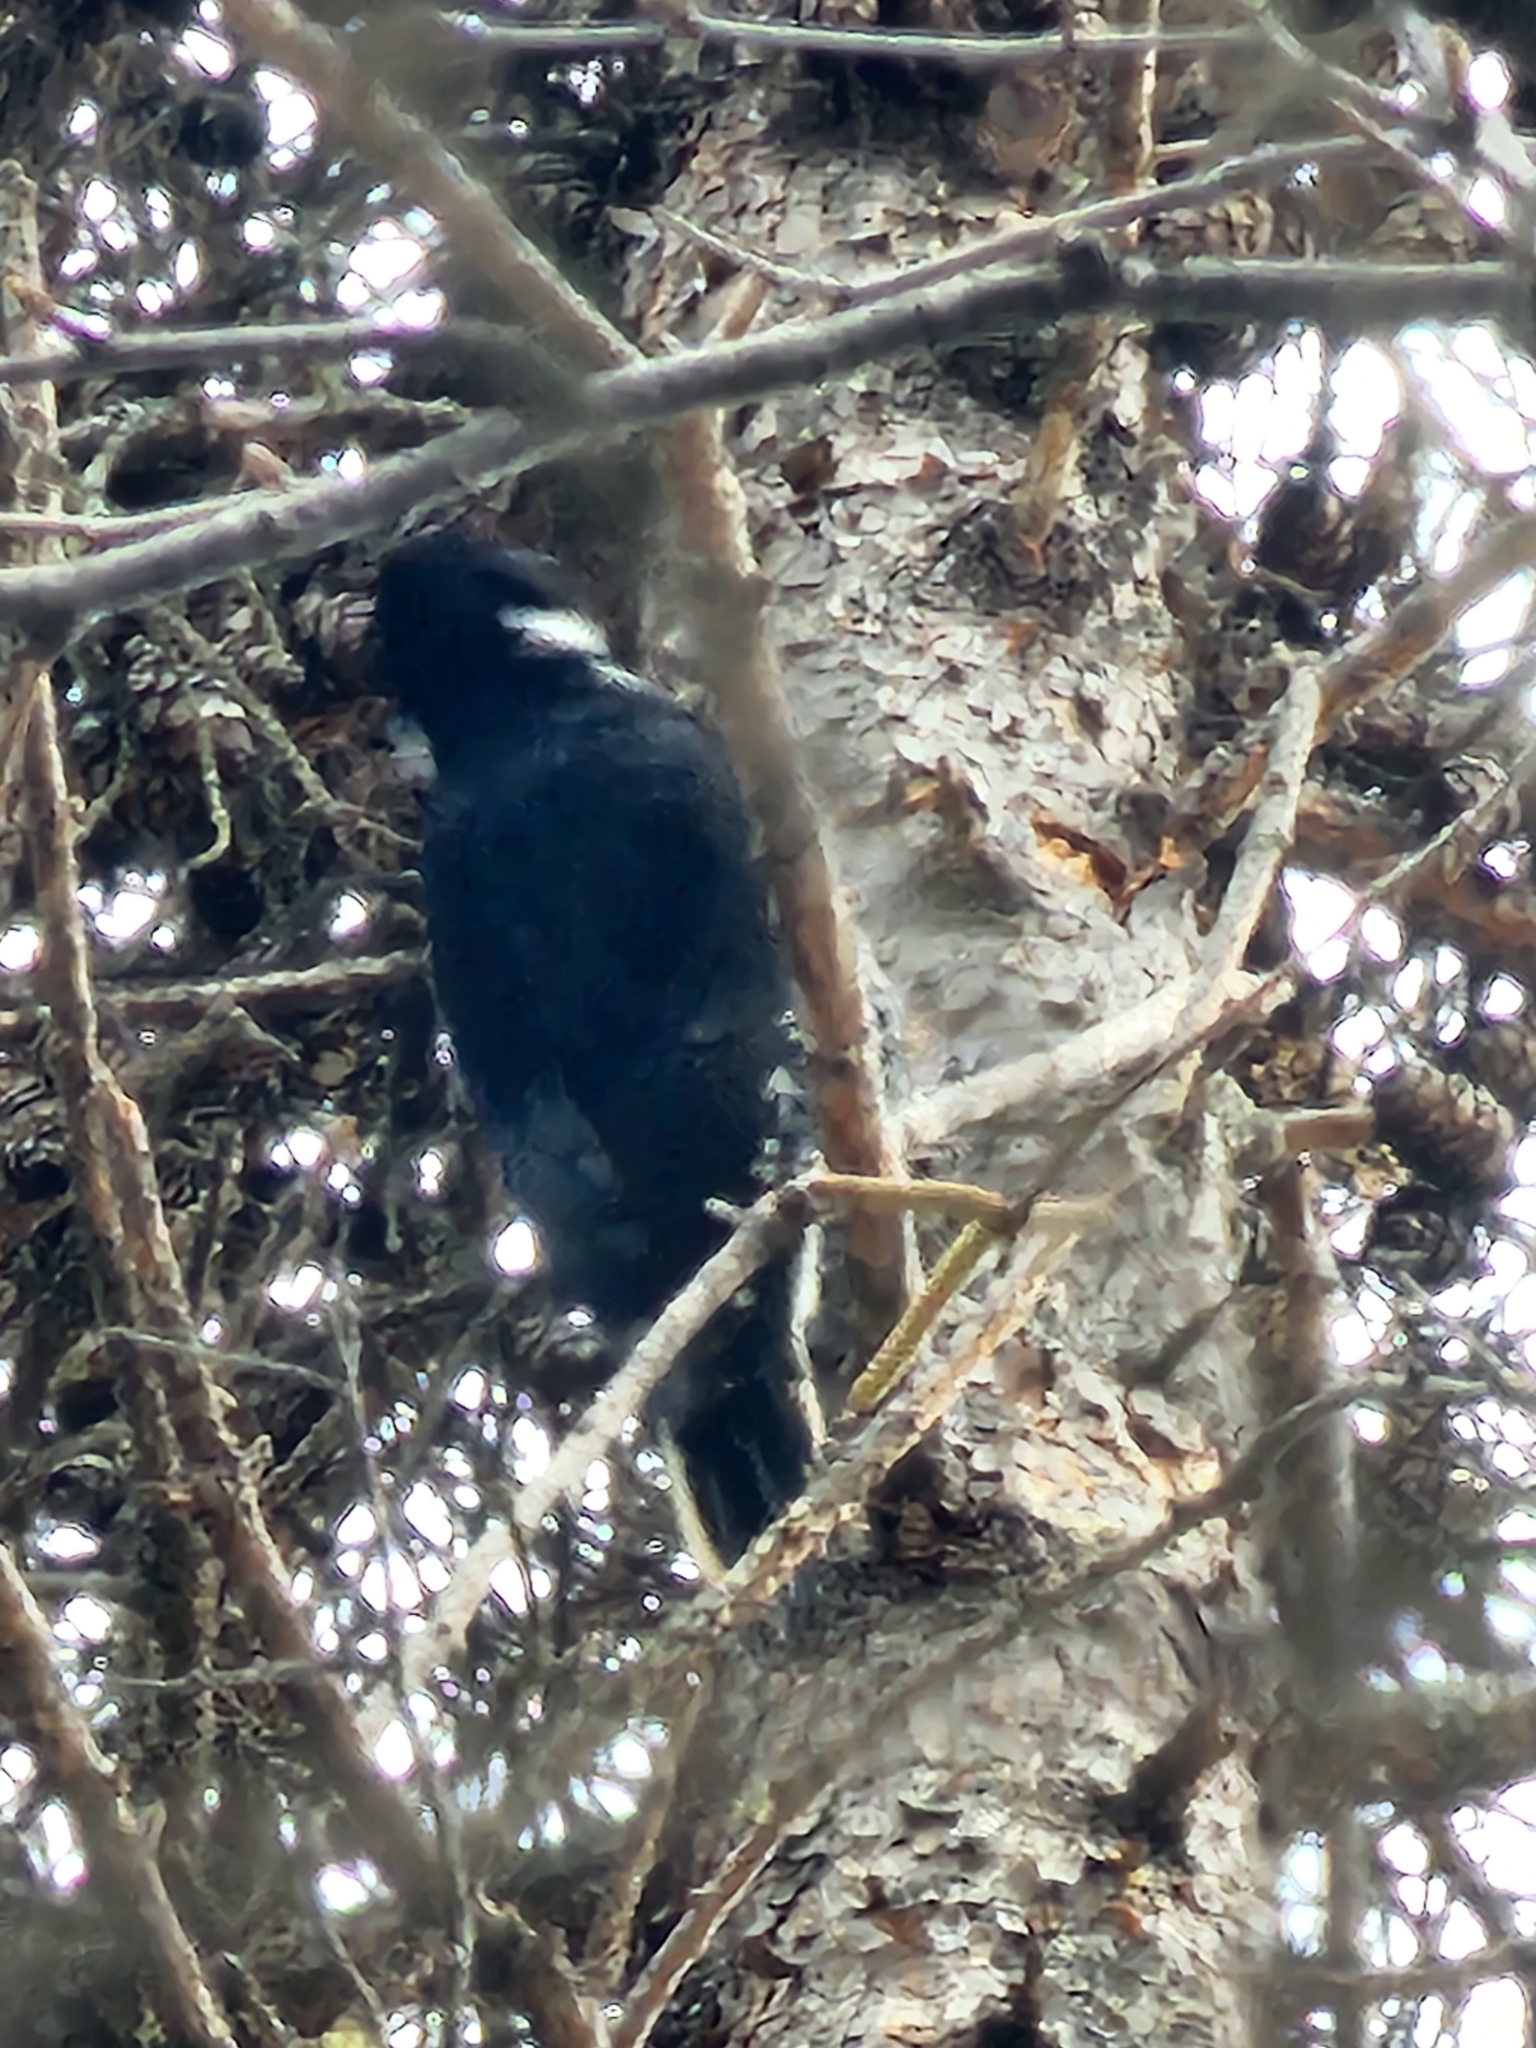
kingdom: Animalia
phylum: Chordata
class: Aves
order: Piciformes
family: Picidae
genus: Picoides
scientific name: Picoides arcticus
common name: Black-backed woodpecker
